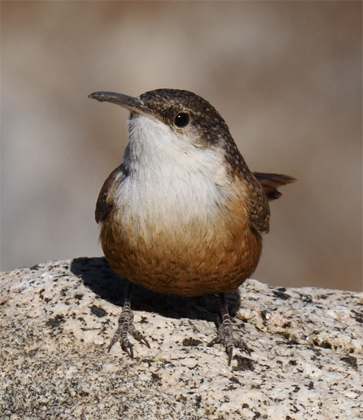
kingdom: Animalia
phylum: Chordata
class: Aves
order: Passeriformes
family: Troglodytidae
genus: Catherpes
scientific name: Catherpes mexicanus
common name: Canyon wren
